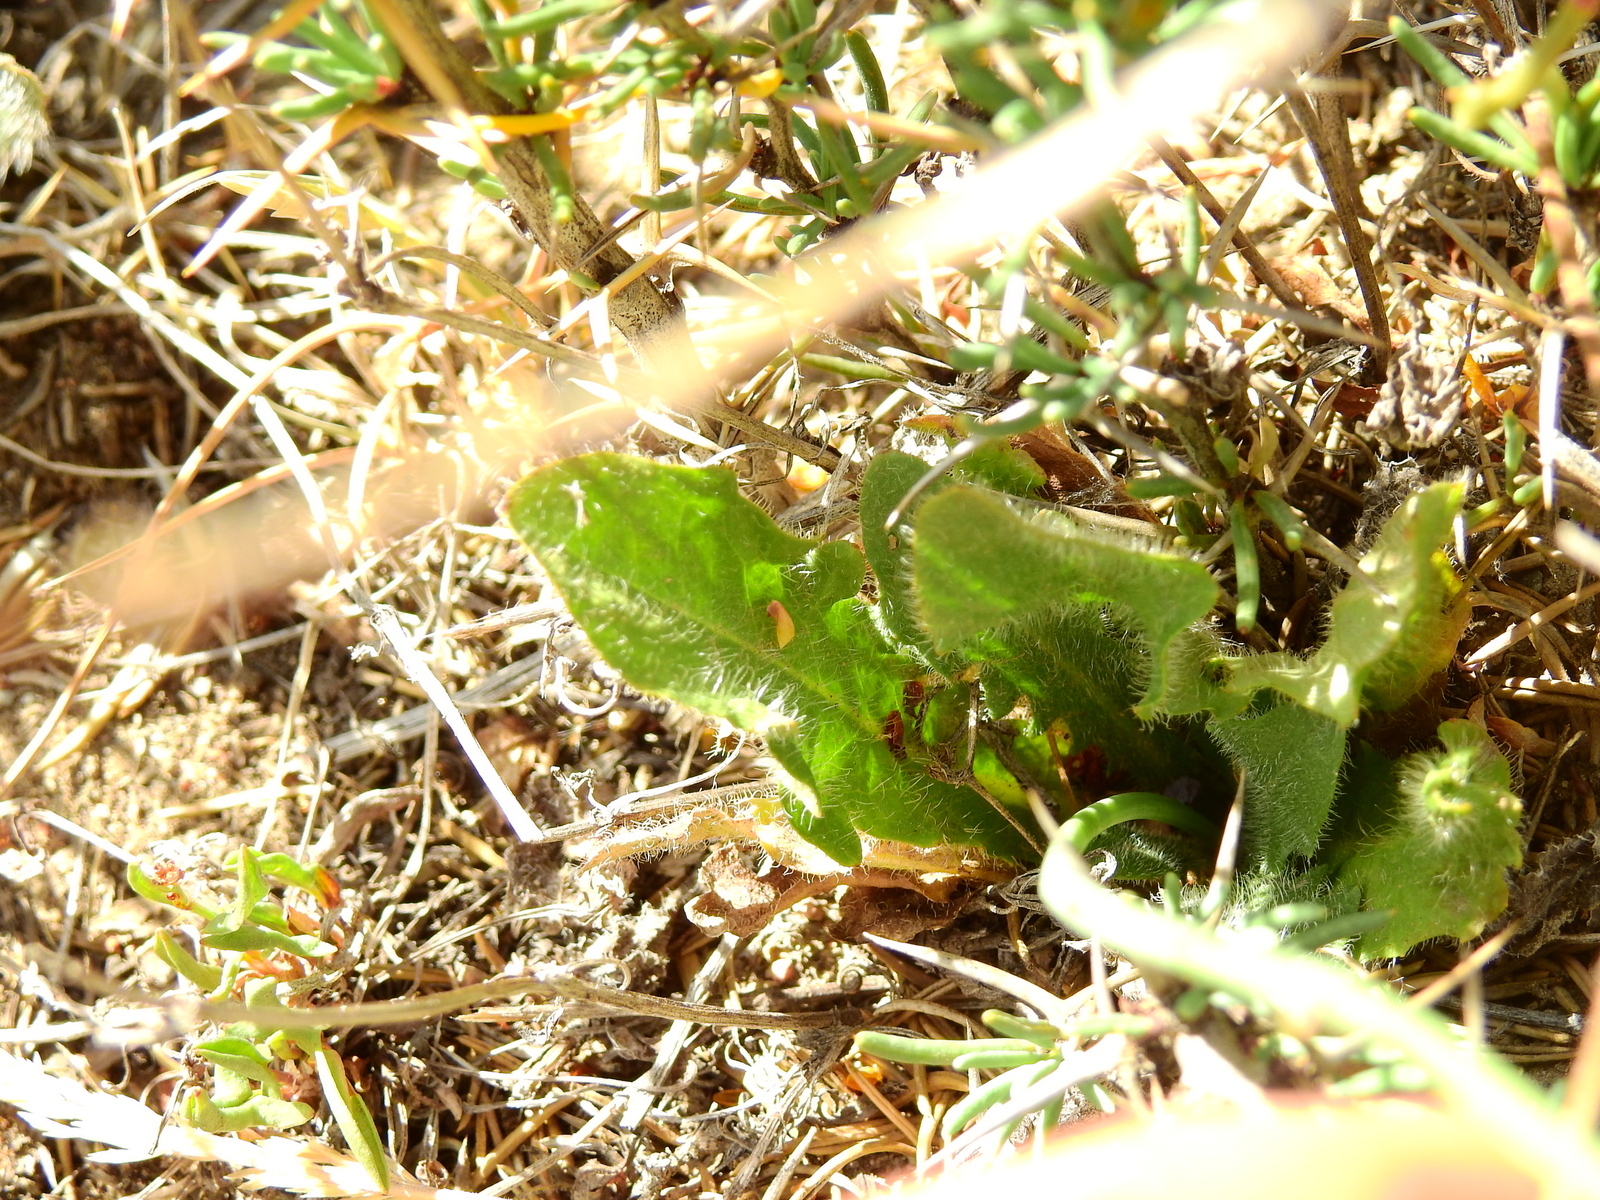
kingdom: Plantae
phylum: Tracheophyta
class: Magnoliopsida
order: Asterales
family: Asteraceae
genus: Hypochaeris
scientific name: Hypochaeris radicata
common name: Flatweed
